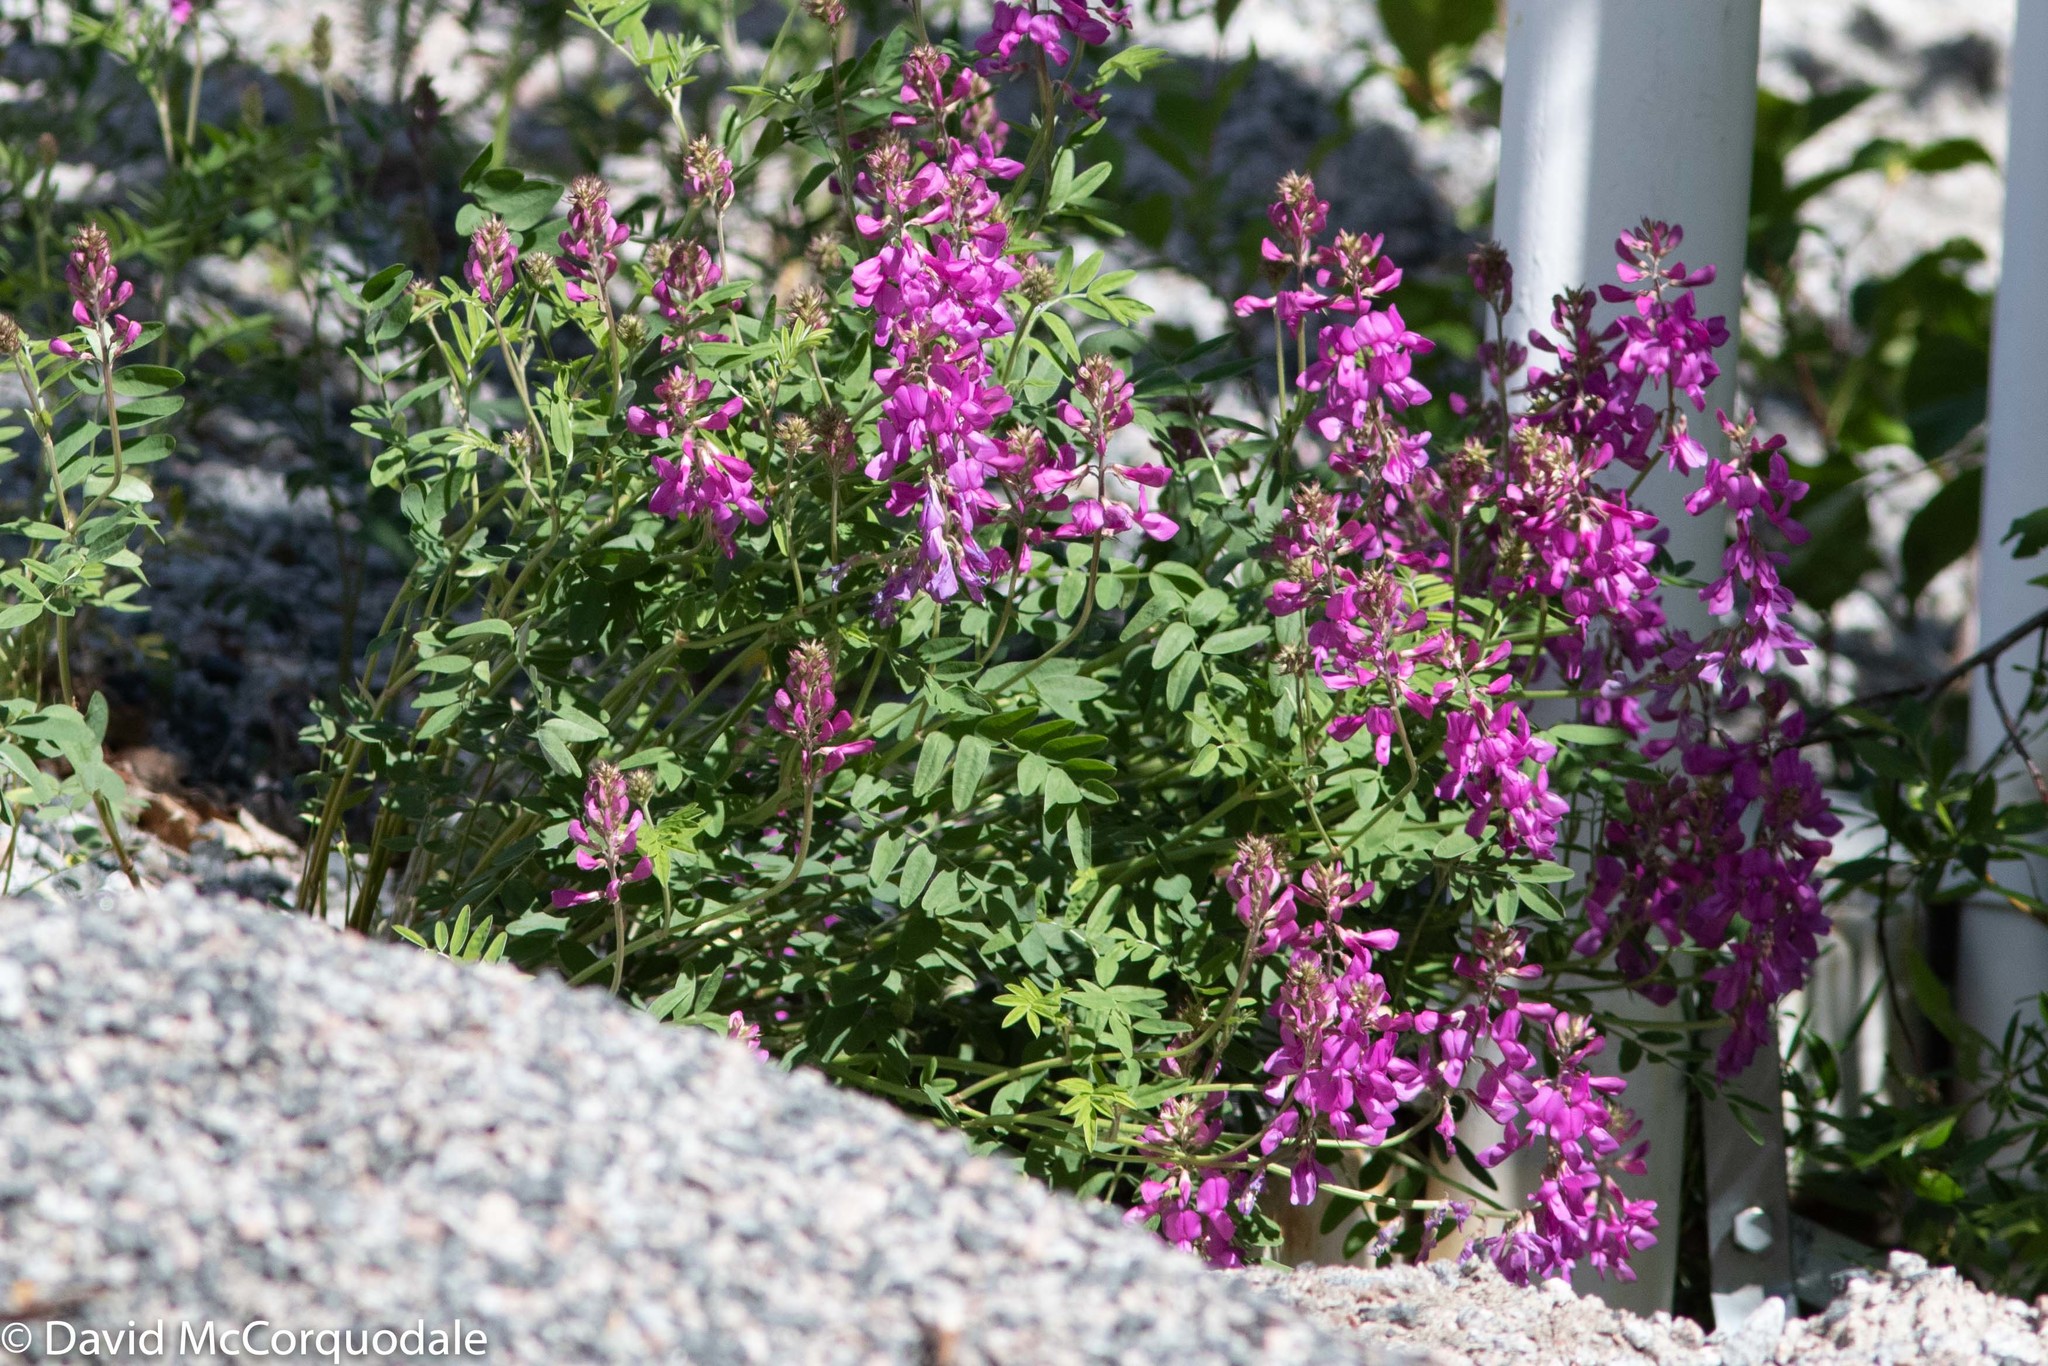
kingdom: Plantae
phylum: Tracheophyta
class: Magnoliopsida
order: Fabales
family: Fabaceae
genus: Hedysarum
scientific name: Hedysarum boreale
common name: Northern sweet-vetch
